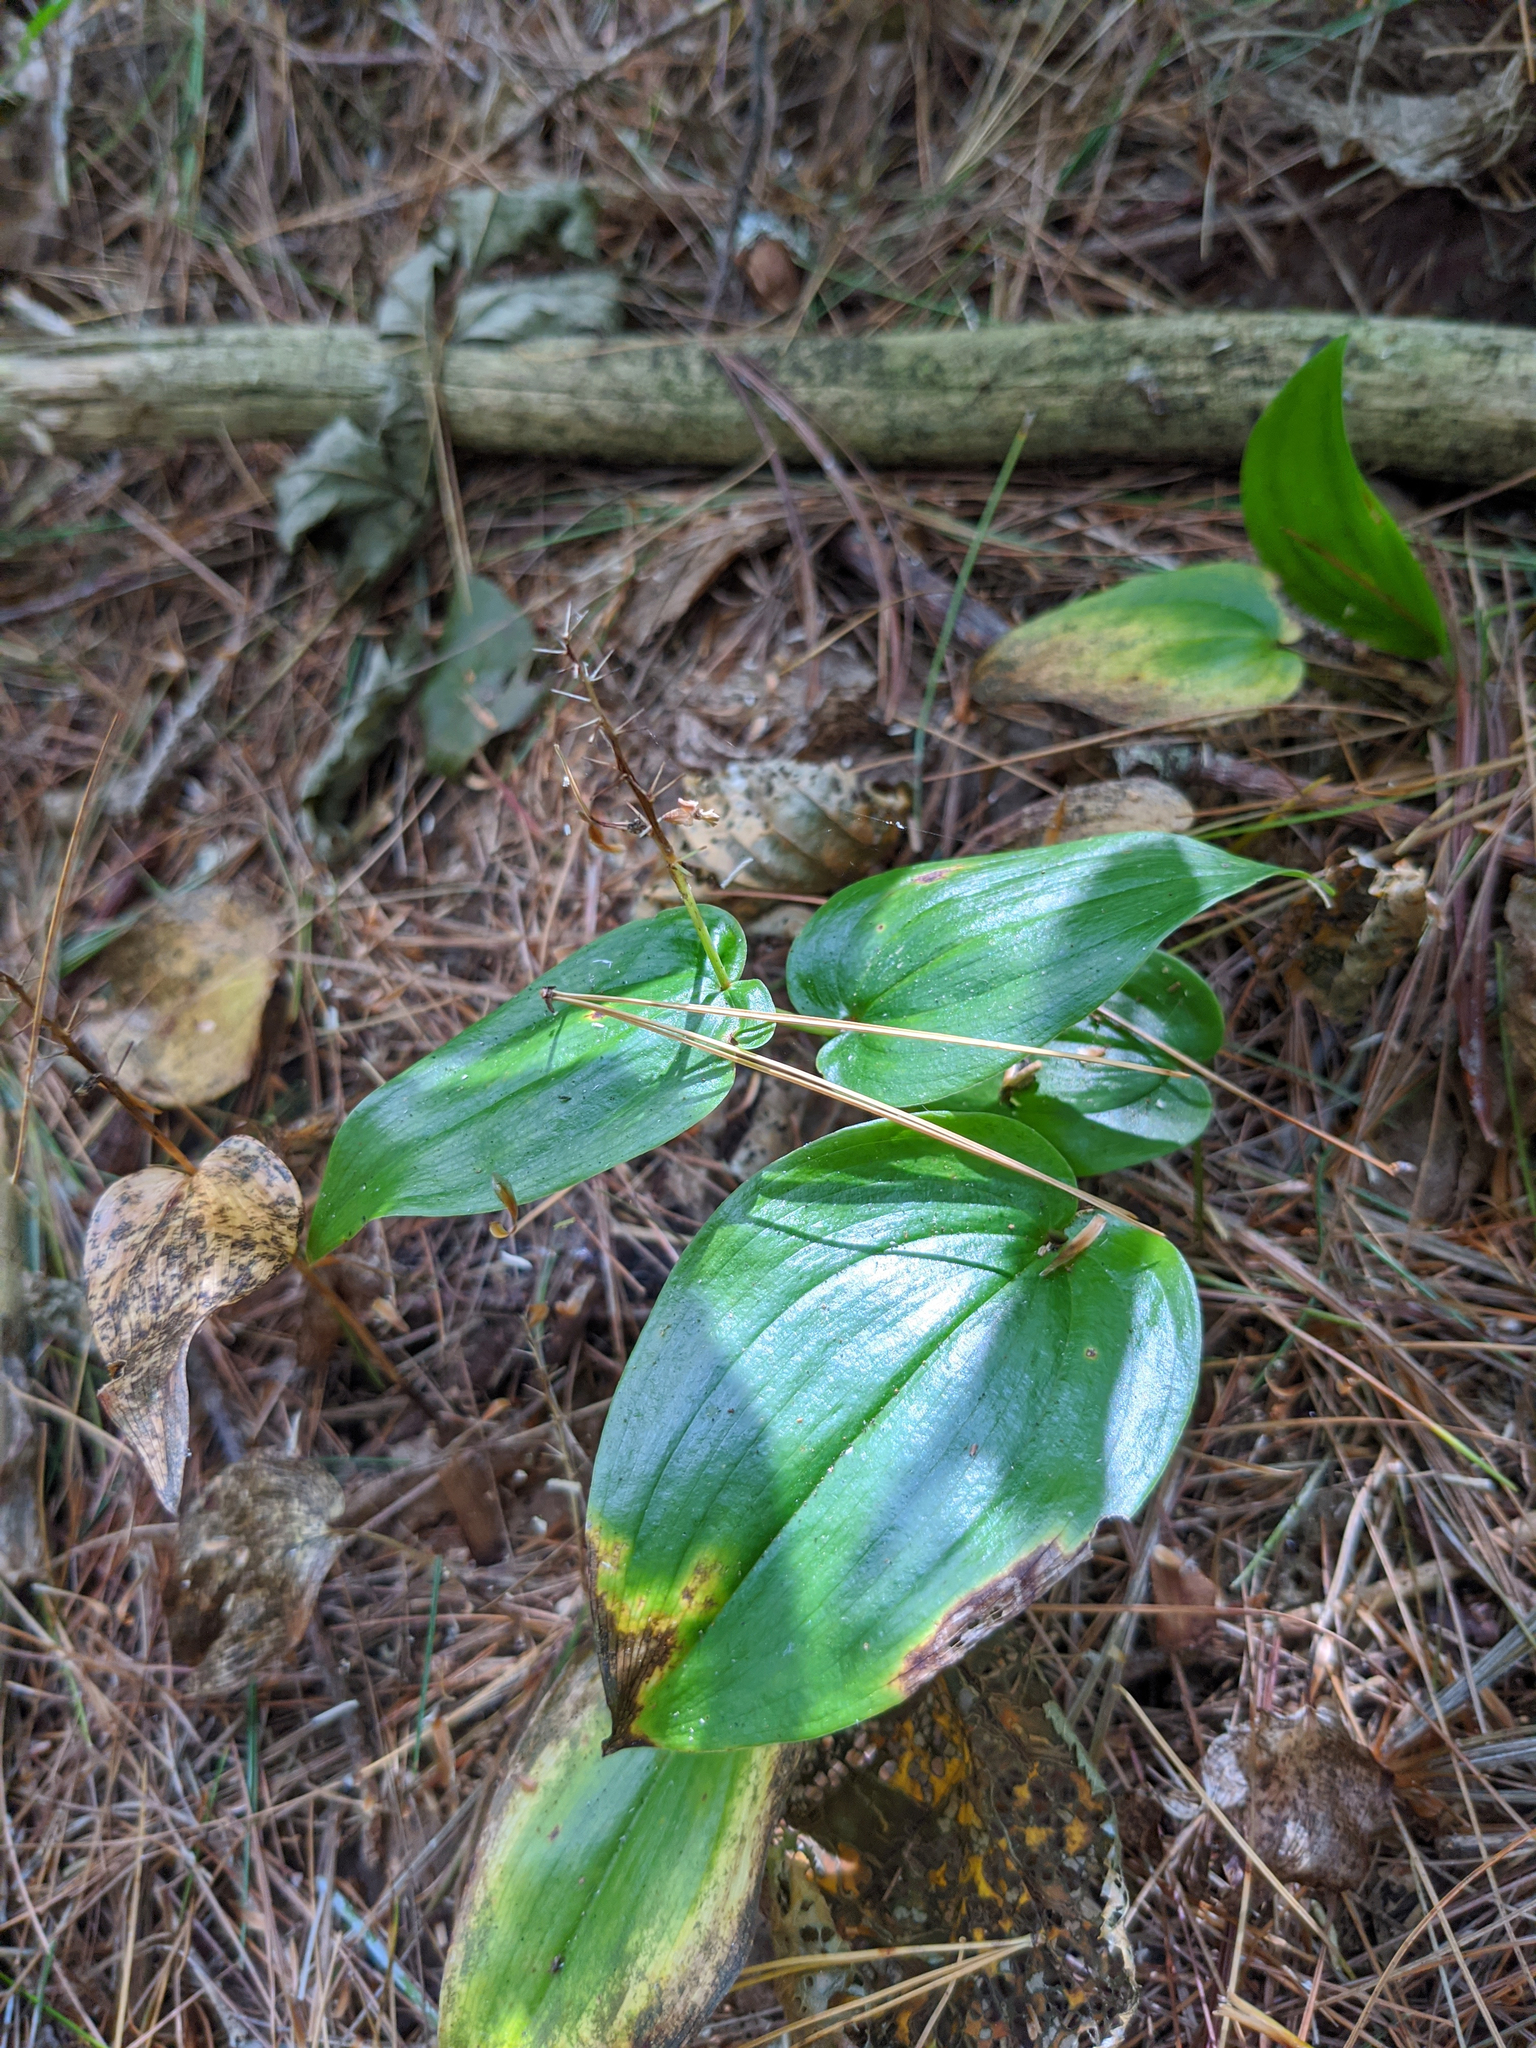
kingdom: Plantae
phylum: Tracheophyta
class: Liliopsida
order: Asparagales
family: Asparagaceae
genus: Maianthemum
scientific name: Maianthemum canadense
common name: False lily-of-the-valley
